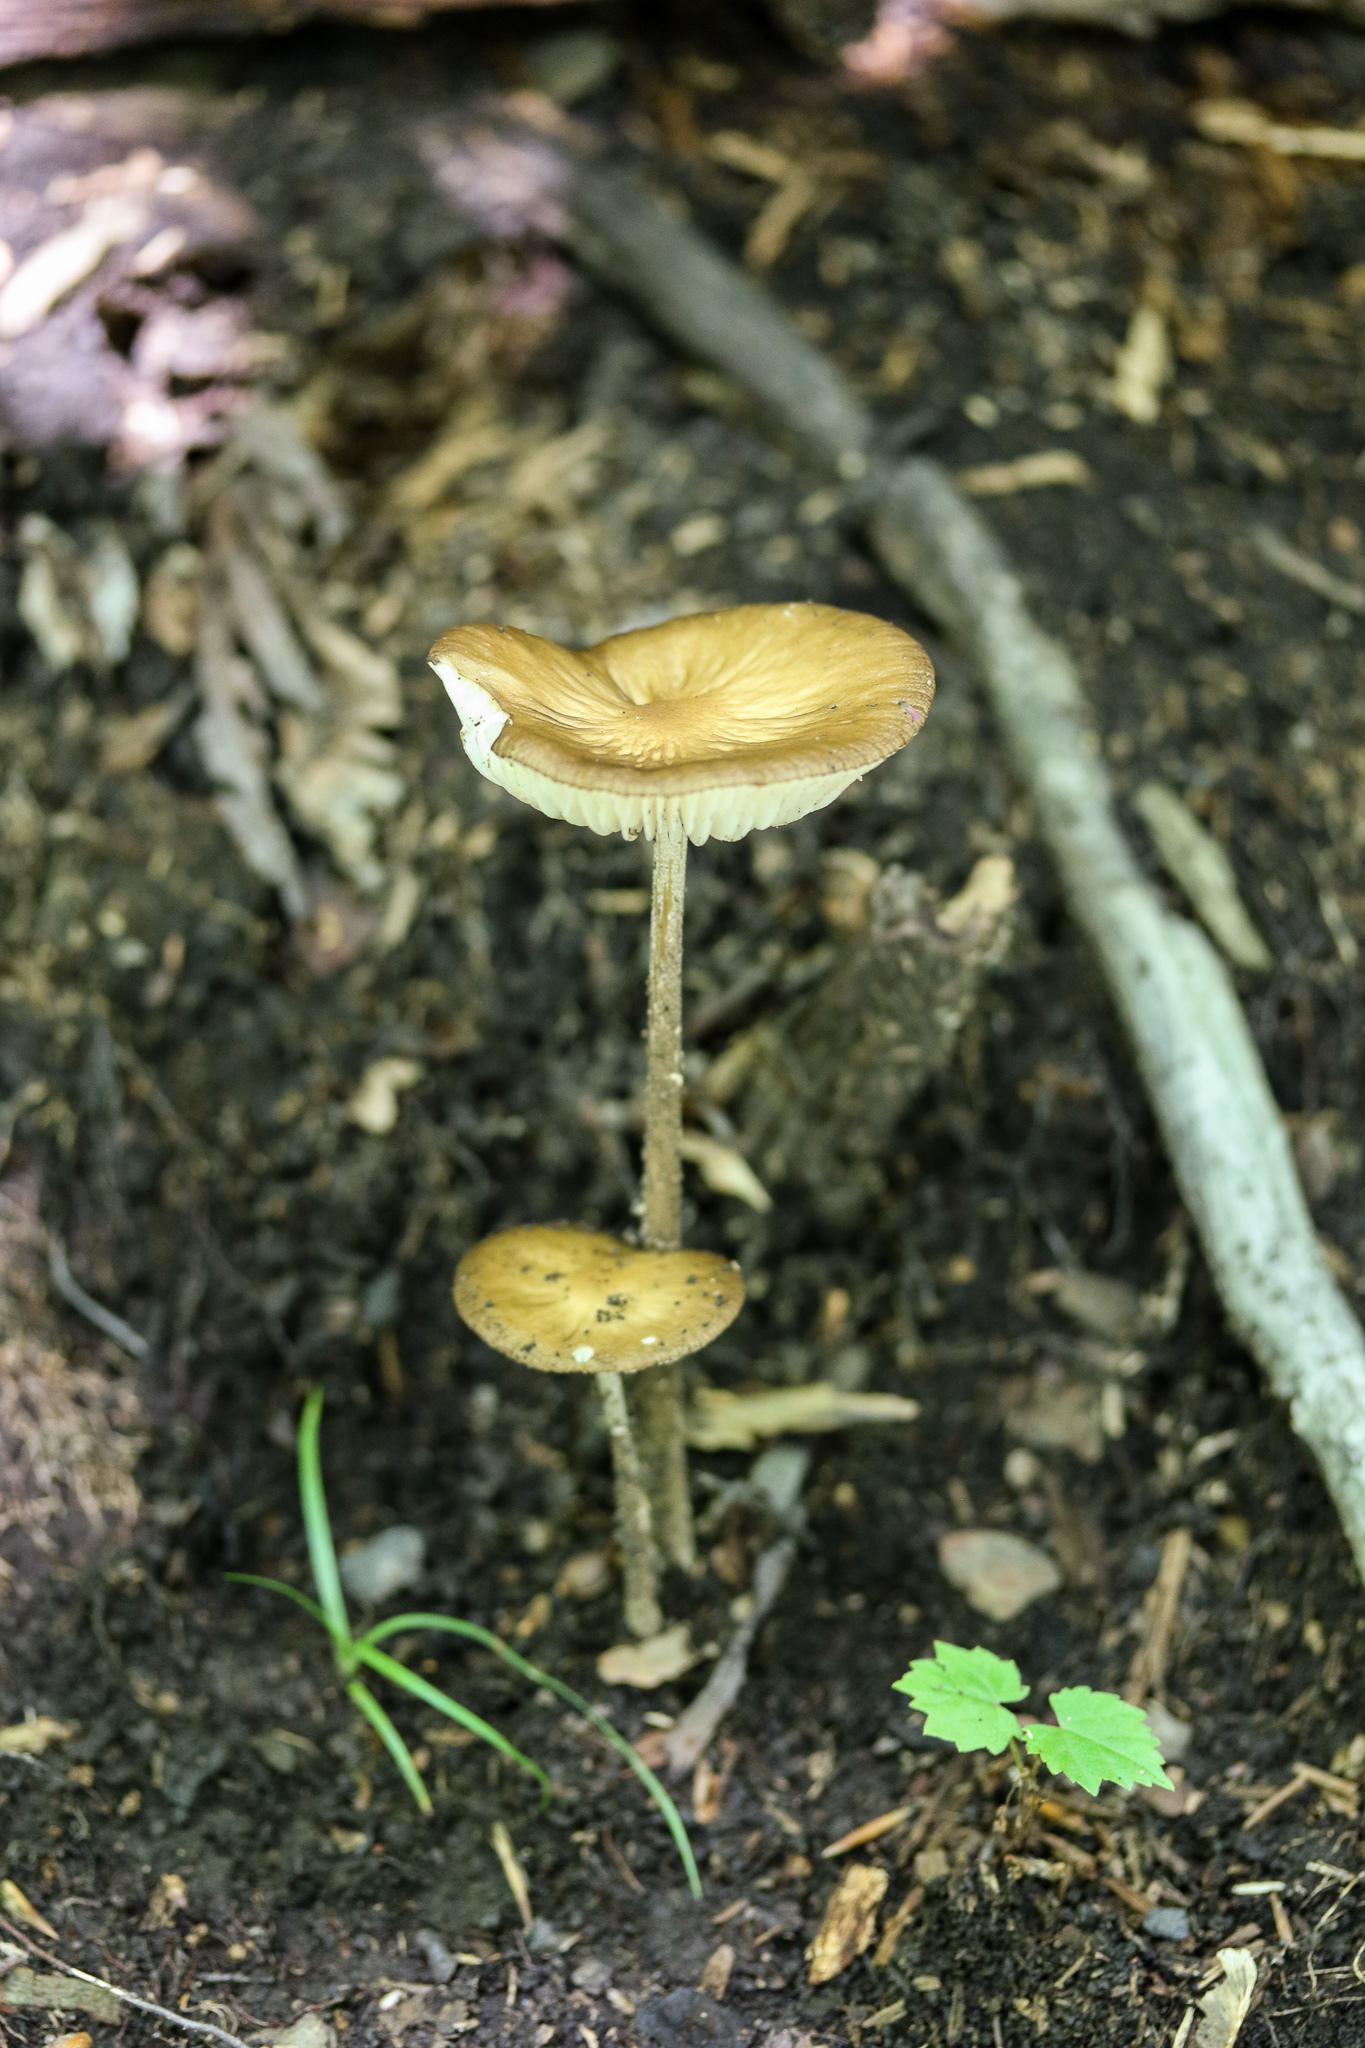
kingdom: Fungi
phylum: Basidiomycota
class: Agaricomycetes
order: Agaricales
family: Physalacriaceae
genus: Hymenopellis
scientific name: Hymenopellis furfuracea
